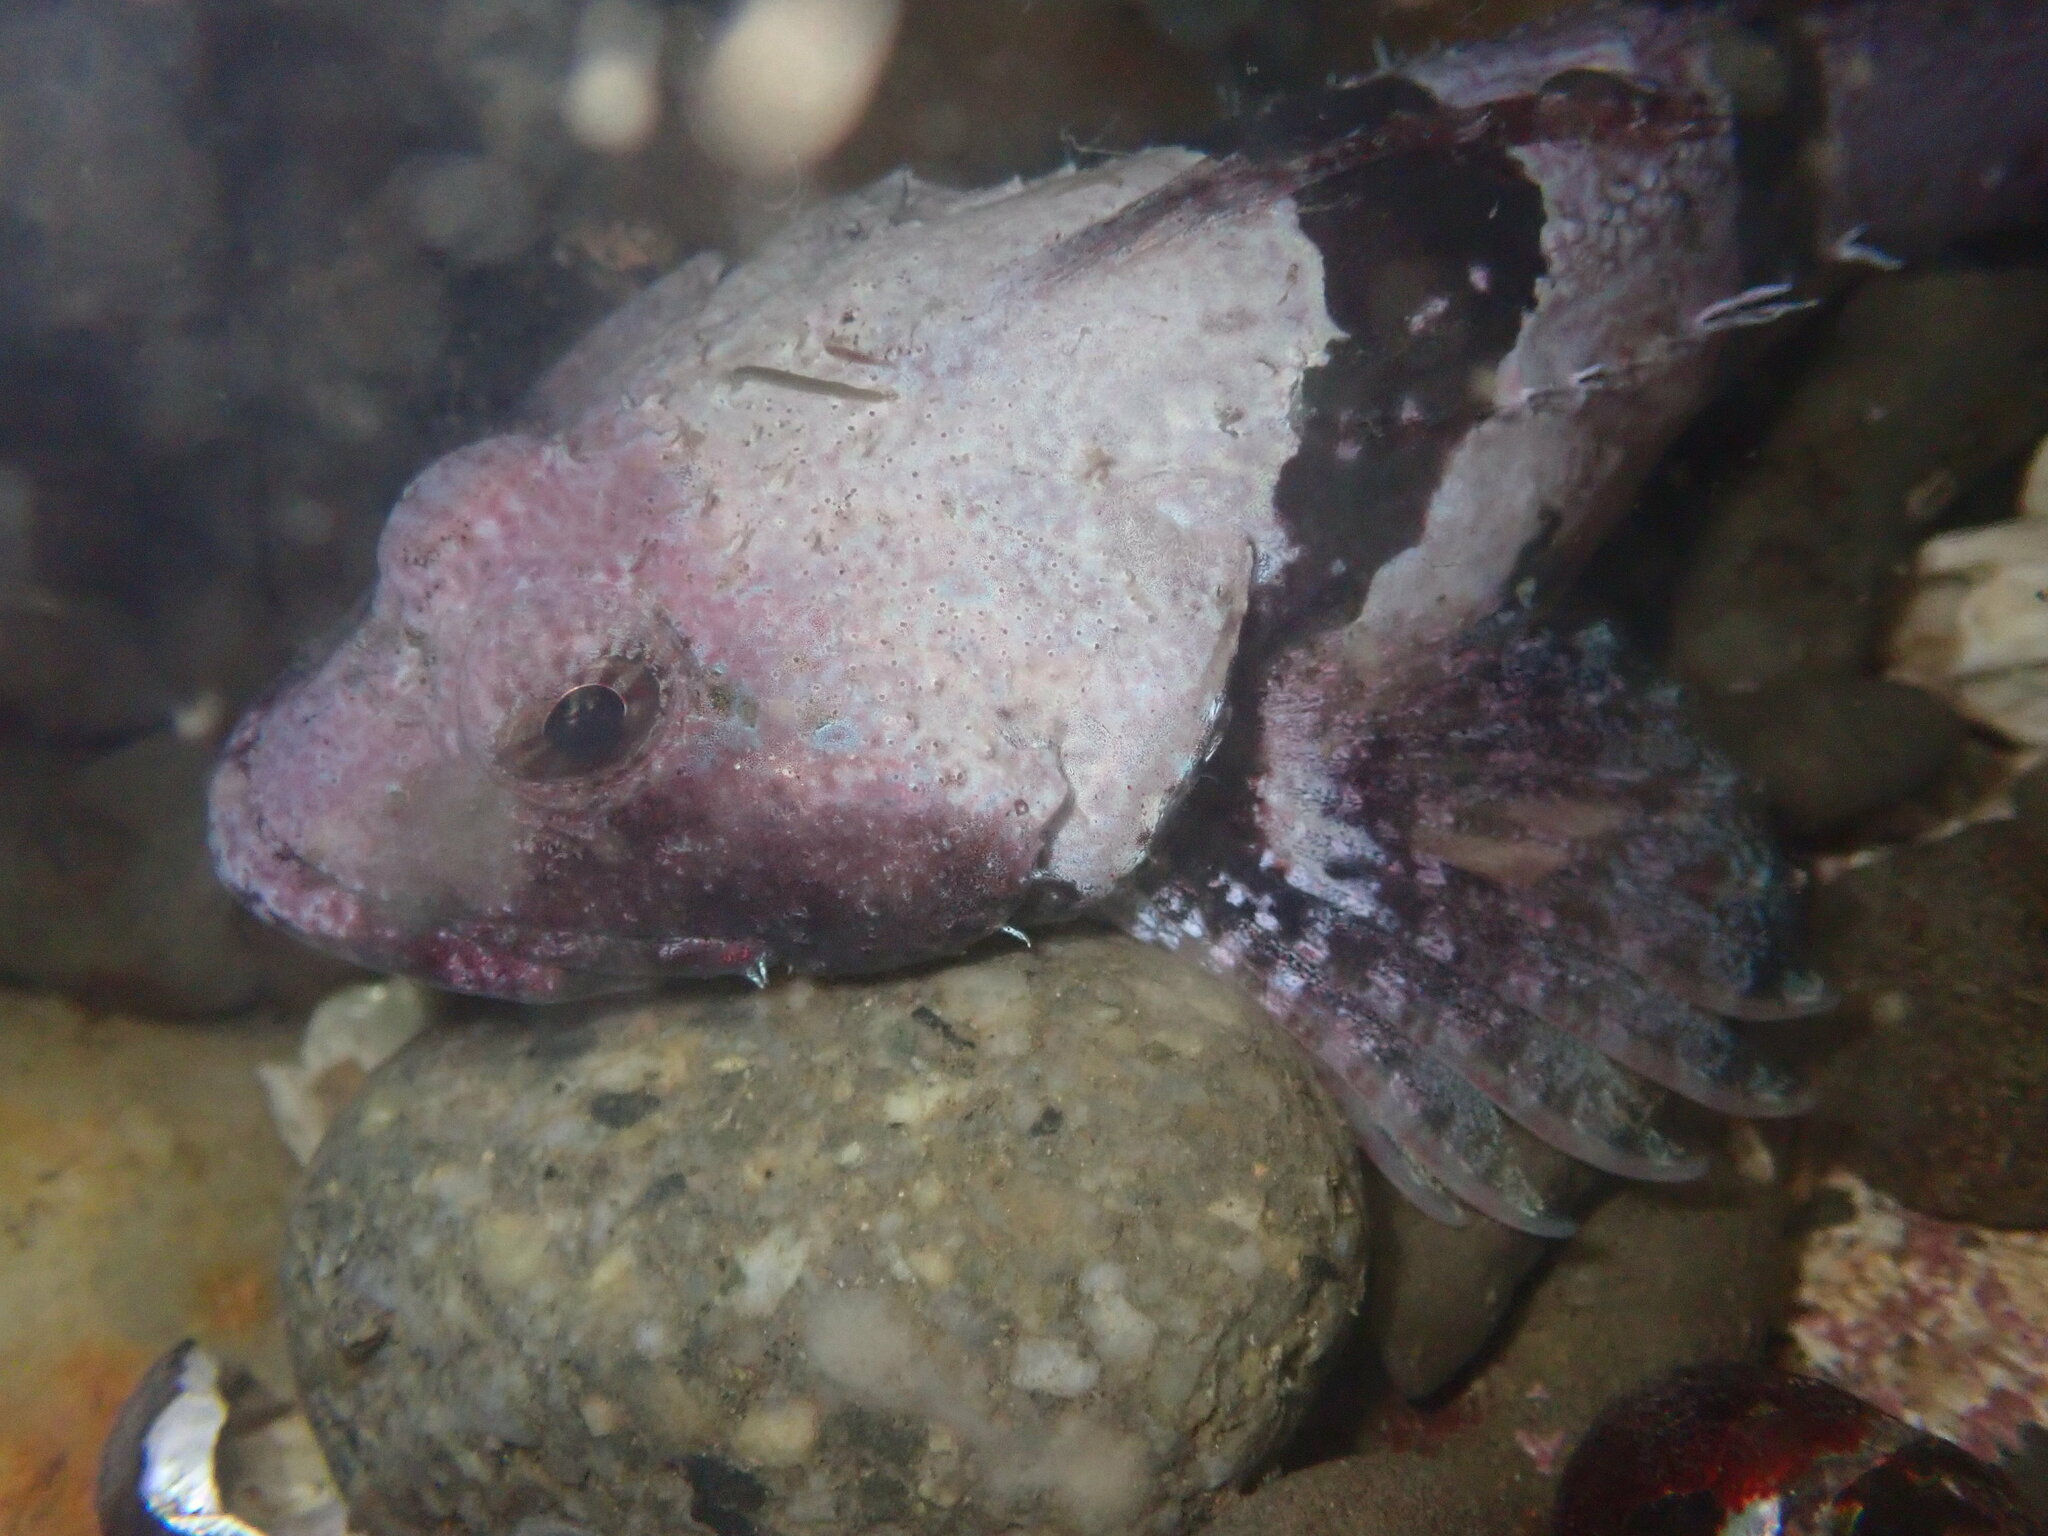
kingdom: Animalia
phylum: Chordata
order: Scorpaeniformes
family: Cottidae
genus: Artedius
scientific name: Artedius lateralis
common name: Smooth-head sculpin
